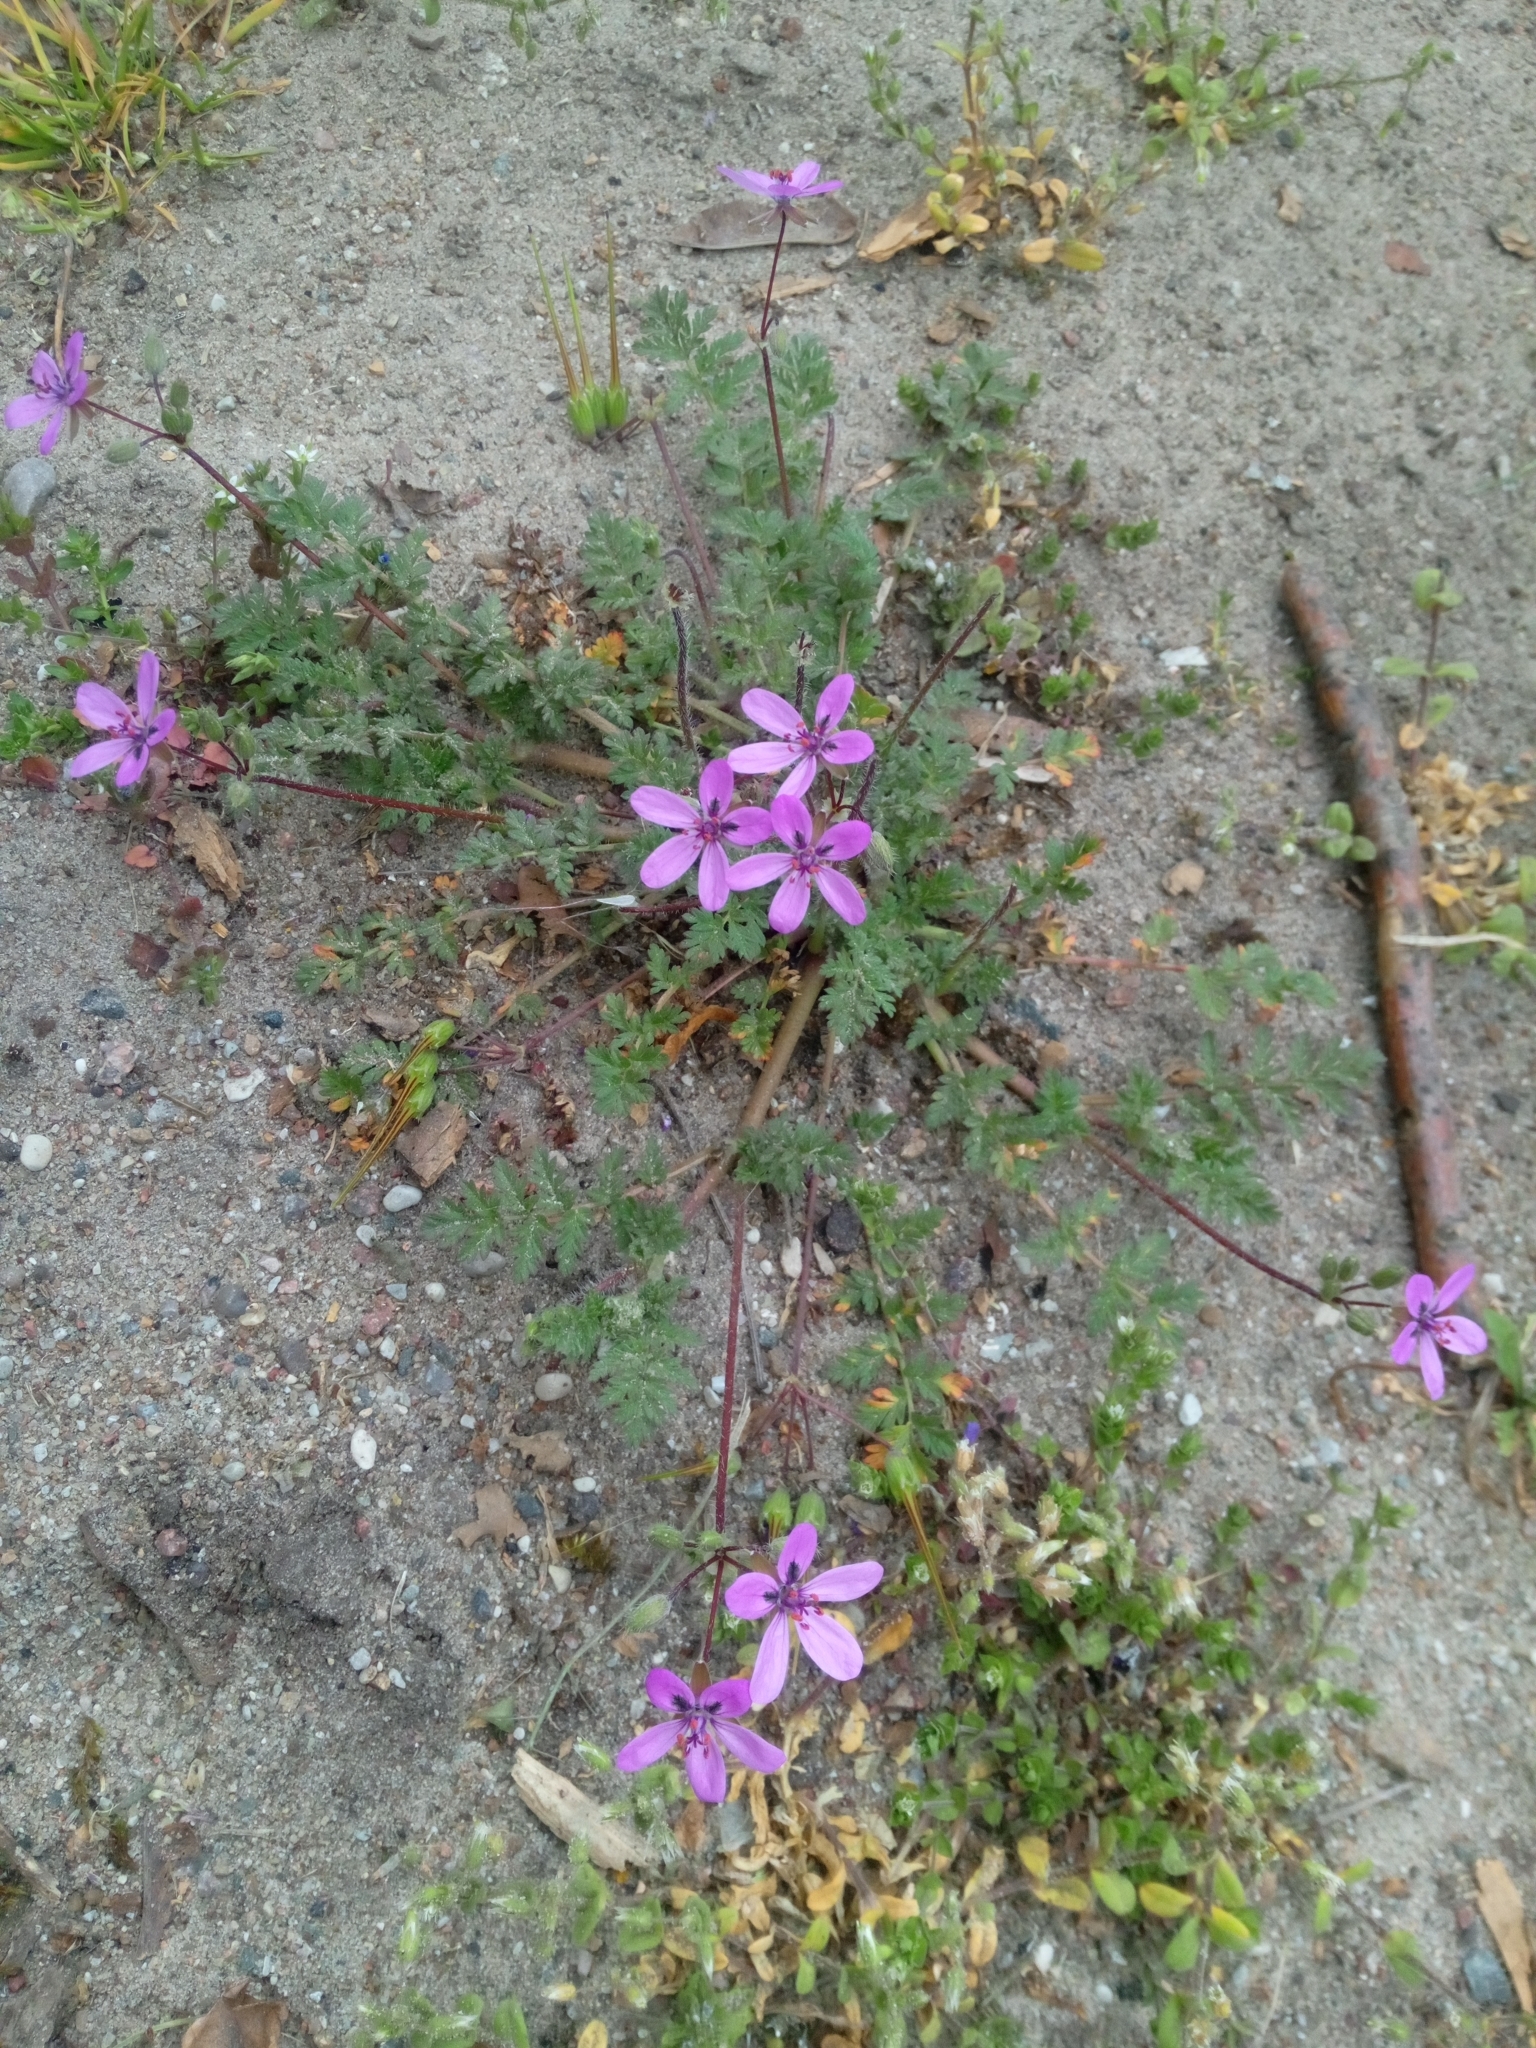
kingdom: Plantae
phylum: Tracheophyta
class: Magnoliopsida
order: Geraniales
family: Geraniaceae
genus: Erodium
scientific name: Erodium cicutarium
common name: Common stork's-bill
